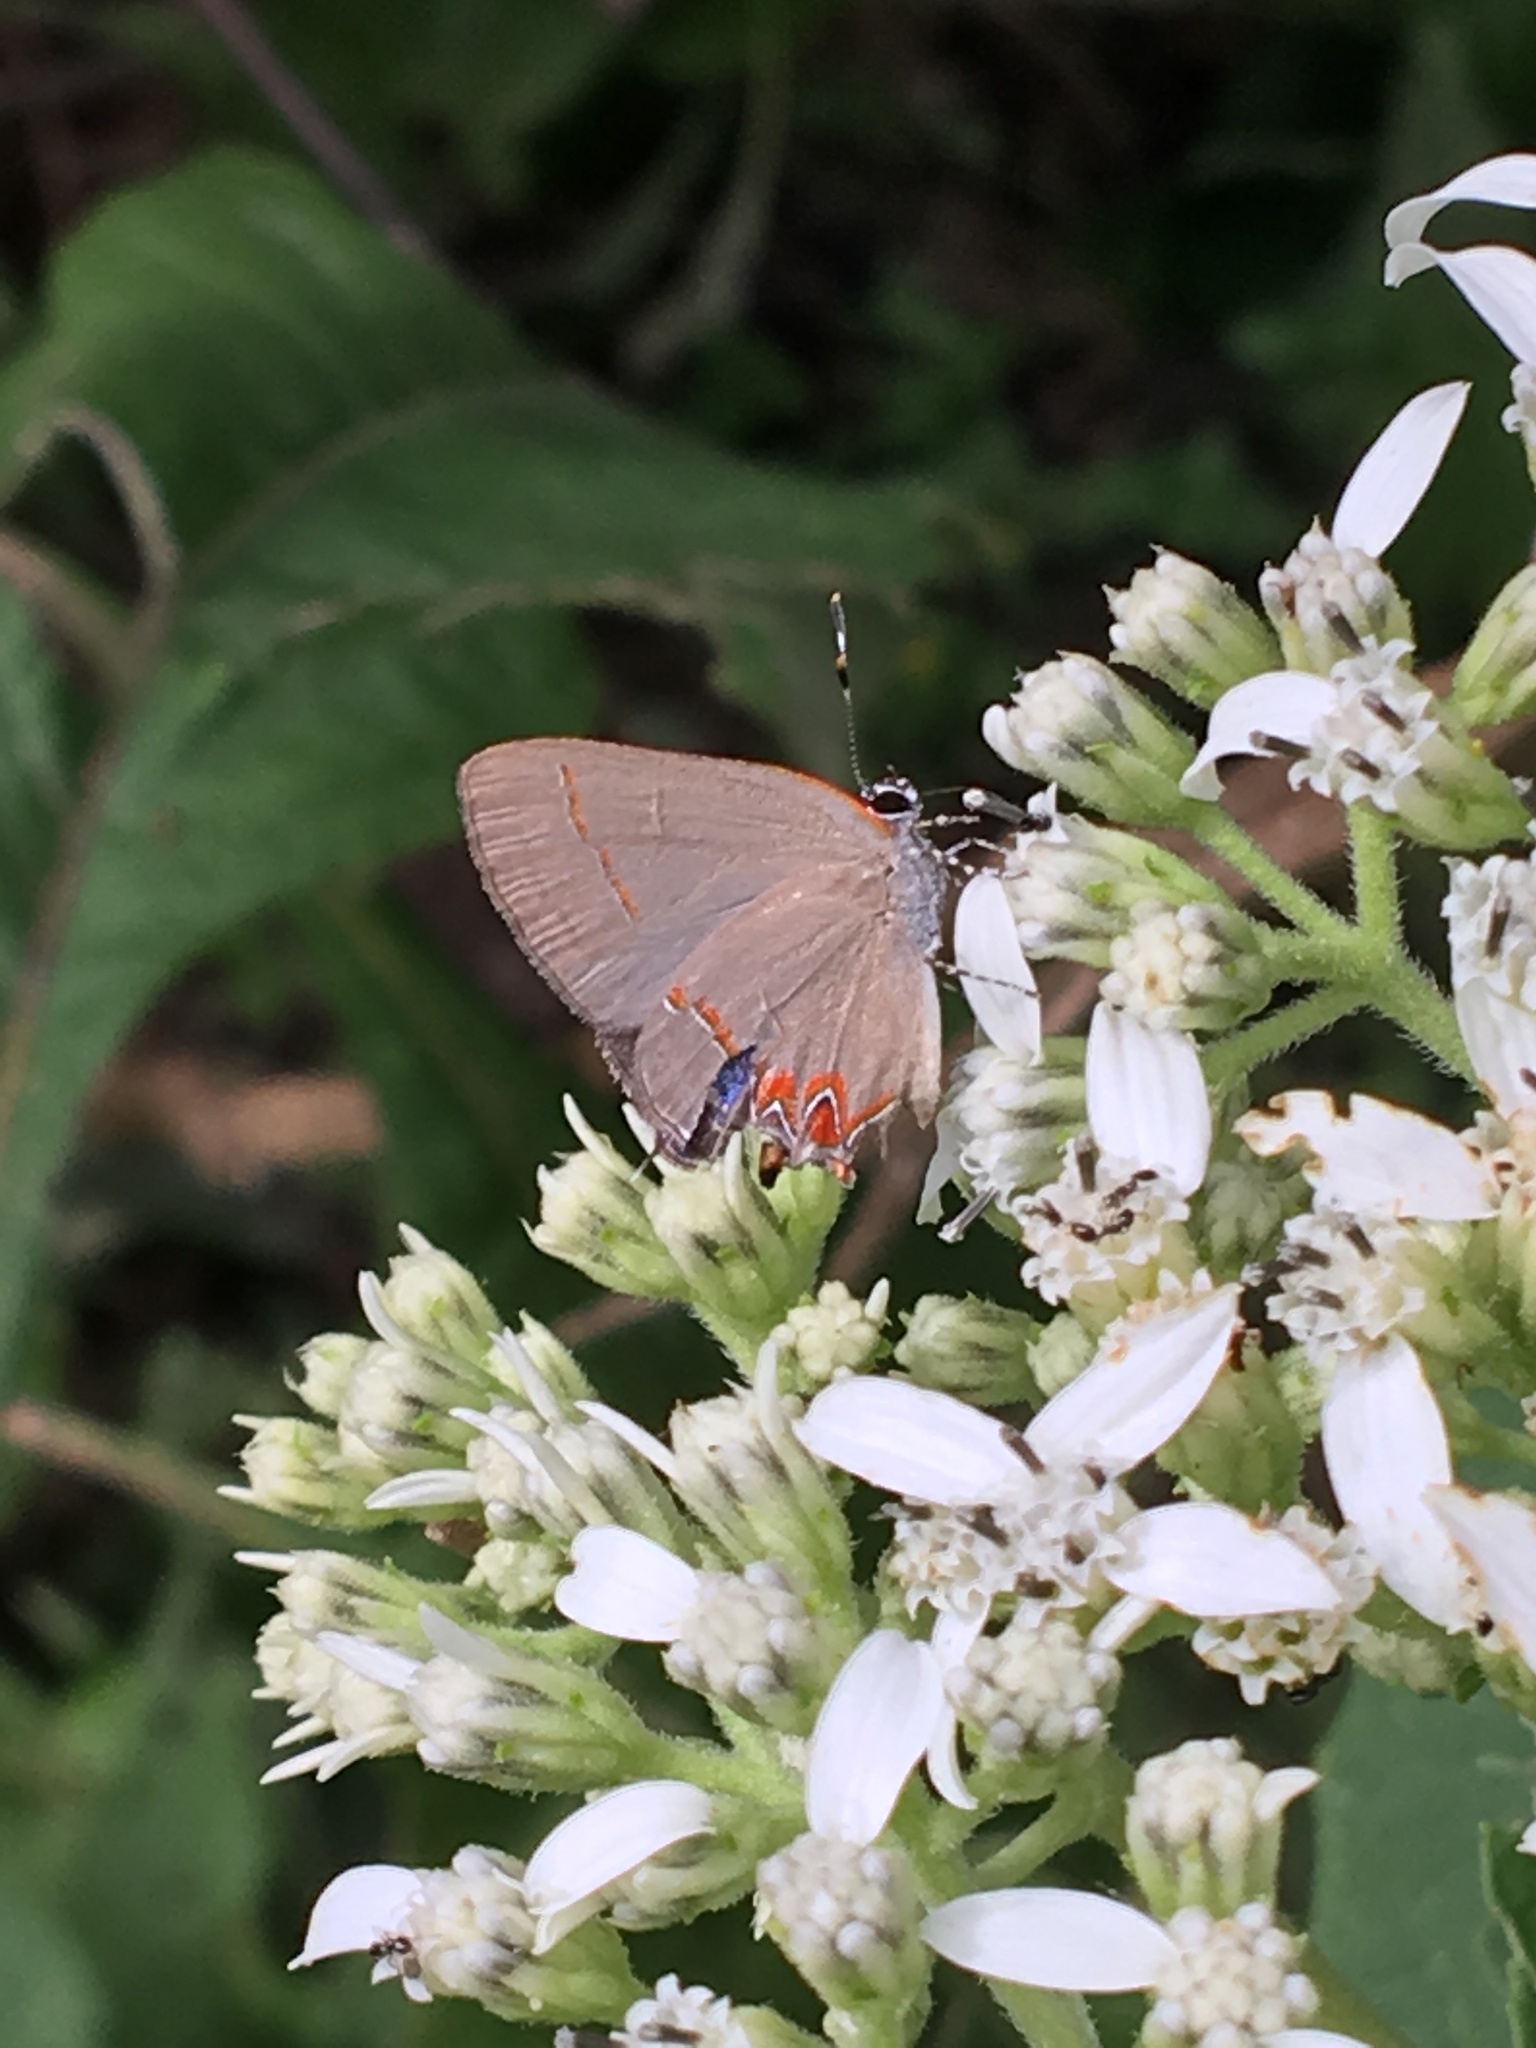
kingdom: Animalia
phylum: Arthropoda
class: Insecta
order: Lepidoptera
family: Lycaenidae
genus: Calycopis
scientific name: Calycopis isobeon
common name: Dusky-blue groundstreak
